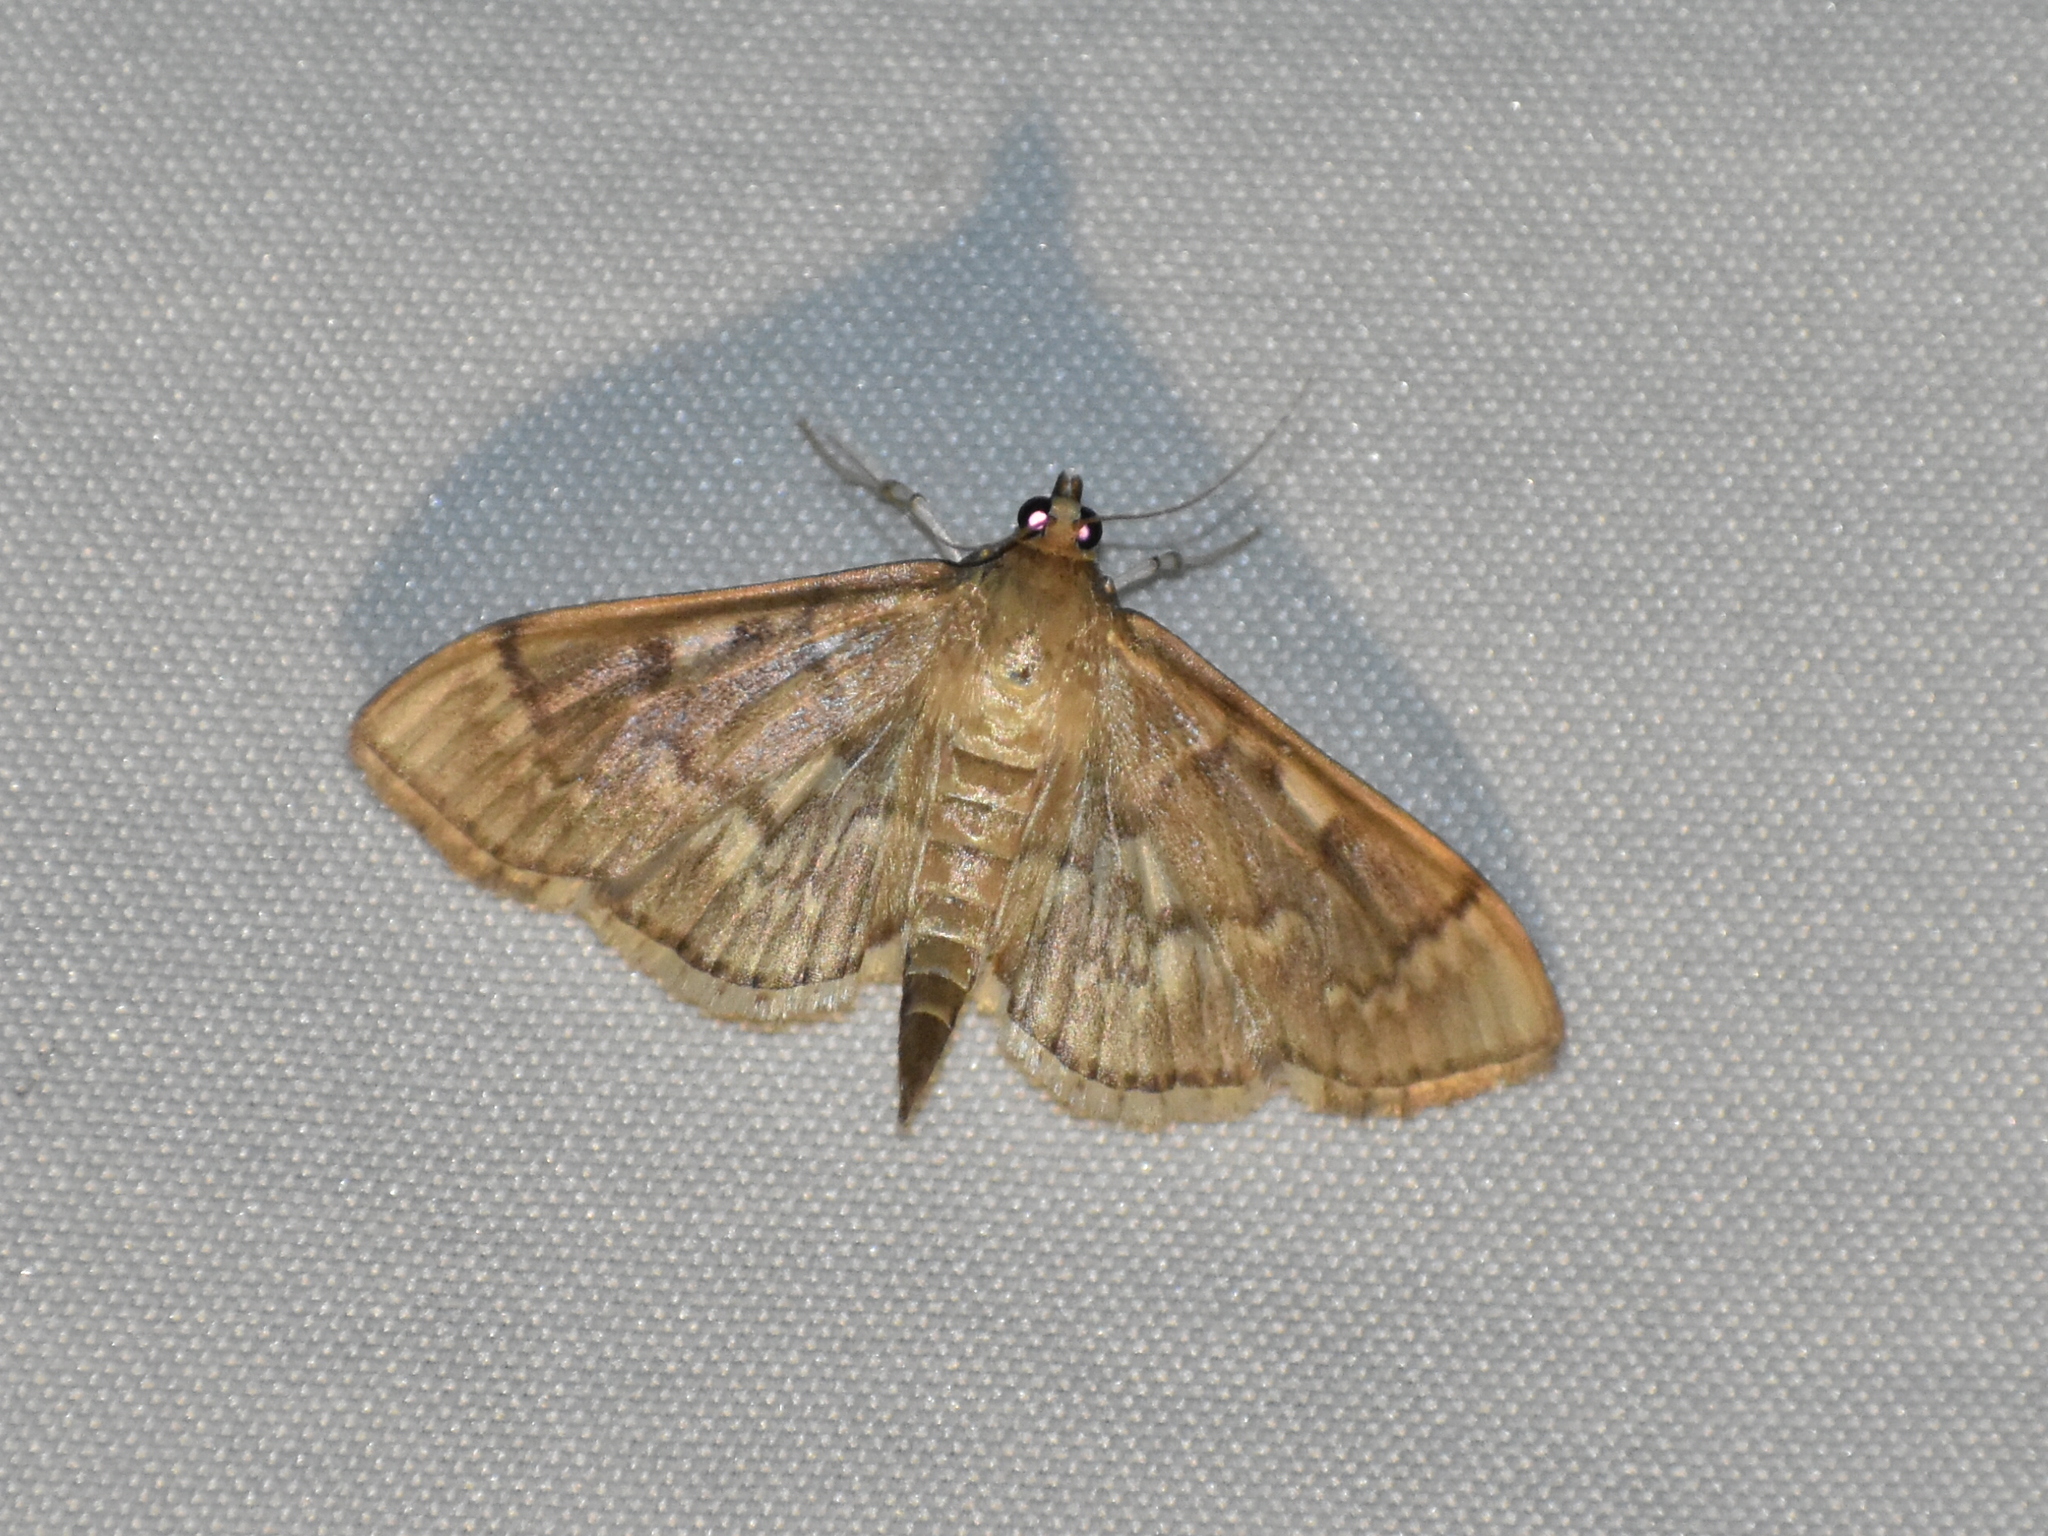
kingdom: Animalia
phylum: Arthropoda
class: Insecta
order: Lepidoptera
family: Crambidae
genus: Herpetogramma
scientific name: Herpetogramma aeglealis
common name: Serpentine webworm moth
